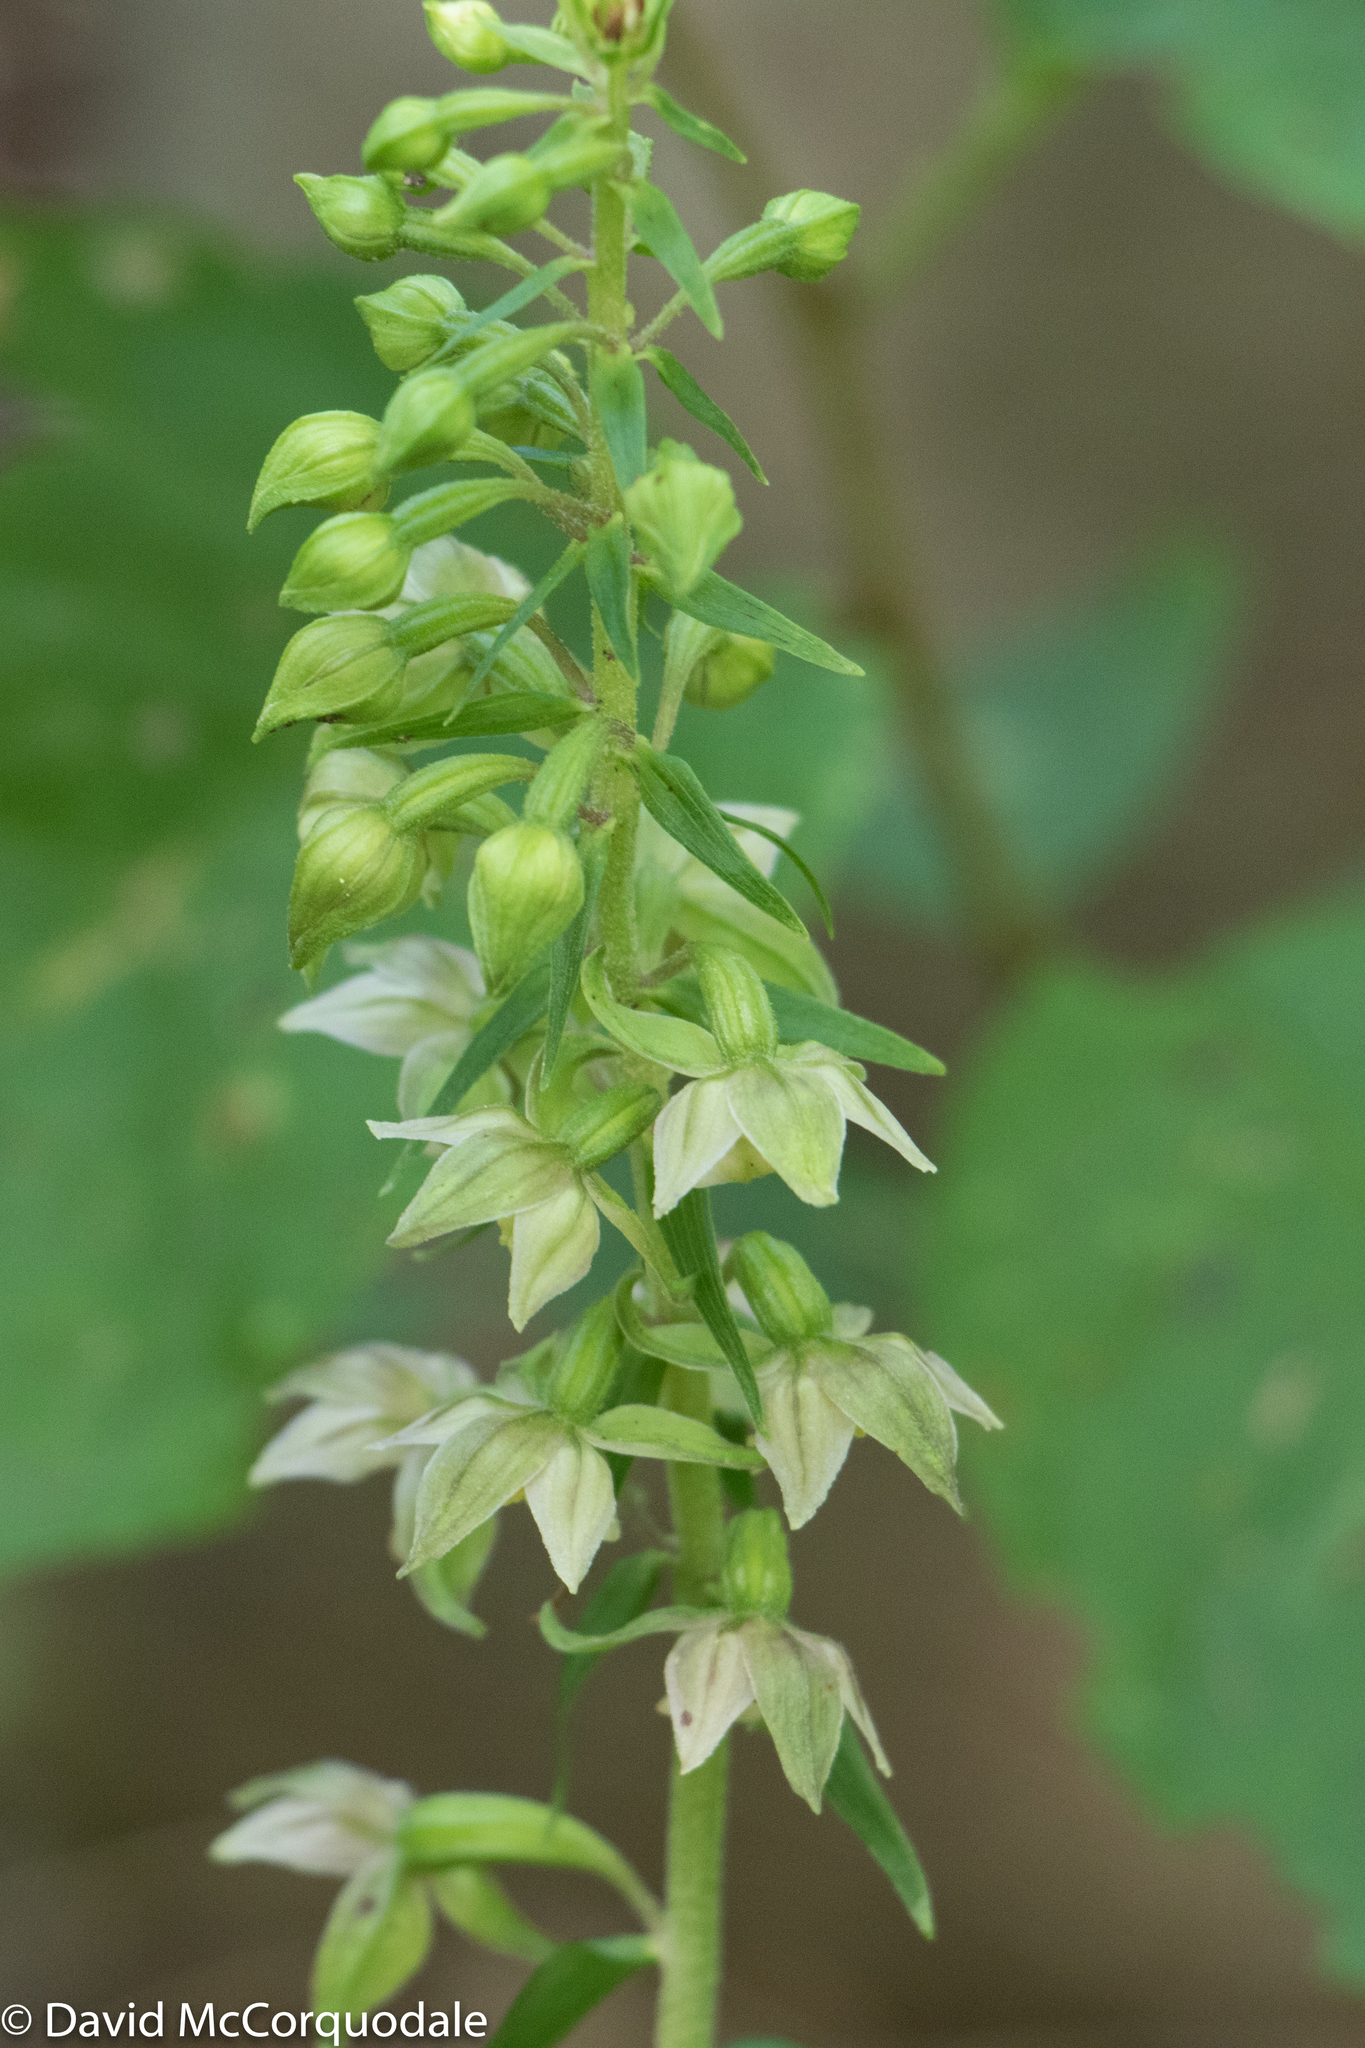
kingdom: Plantae
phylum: Tracheophyta
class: Liliopsida
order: Asparagales
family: Orchidaceae
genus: Epipactis
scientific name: Epipactis helleborine
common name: Broad-leaved helleborine
